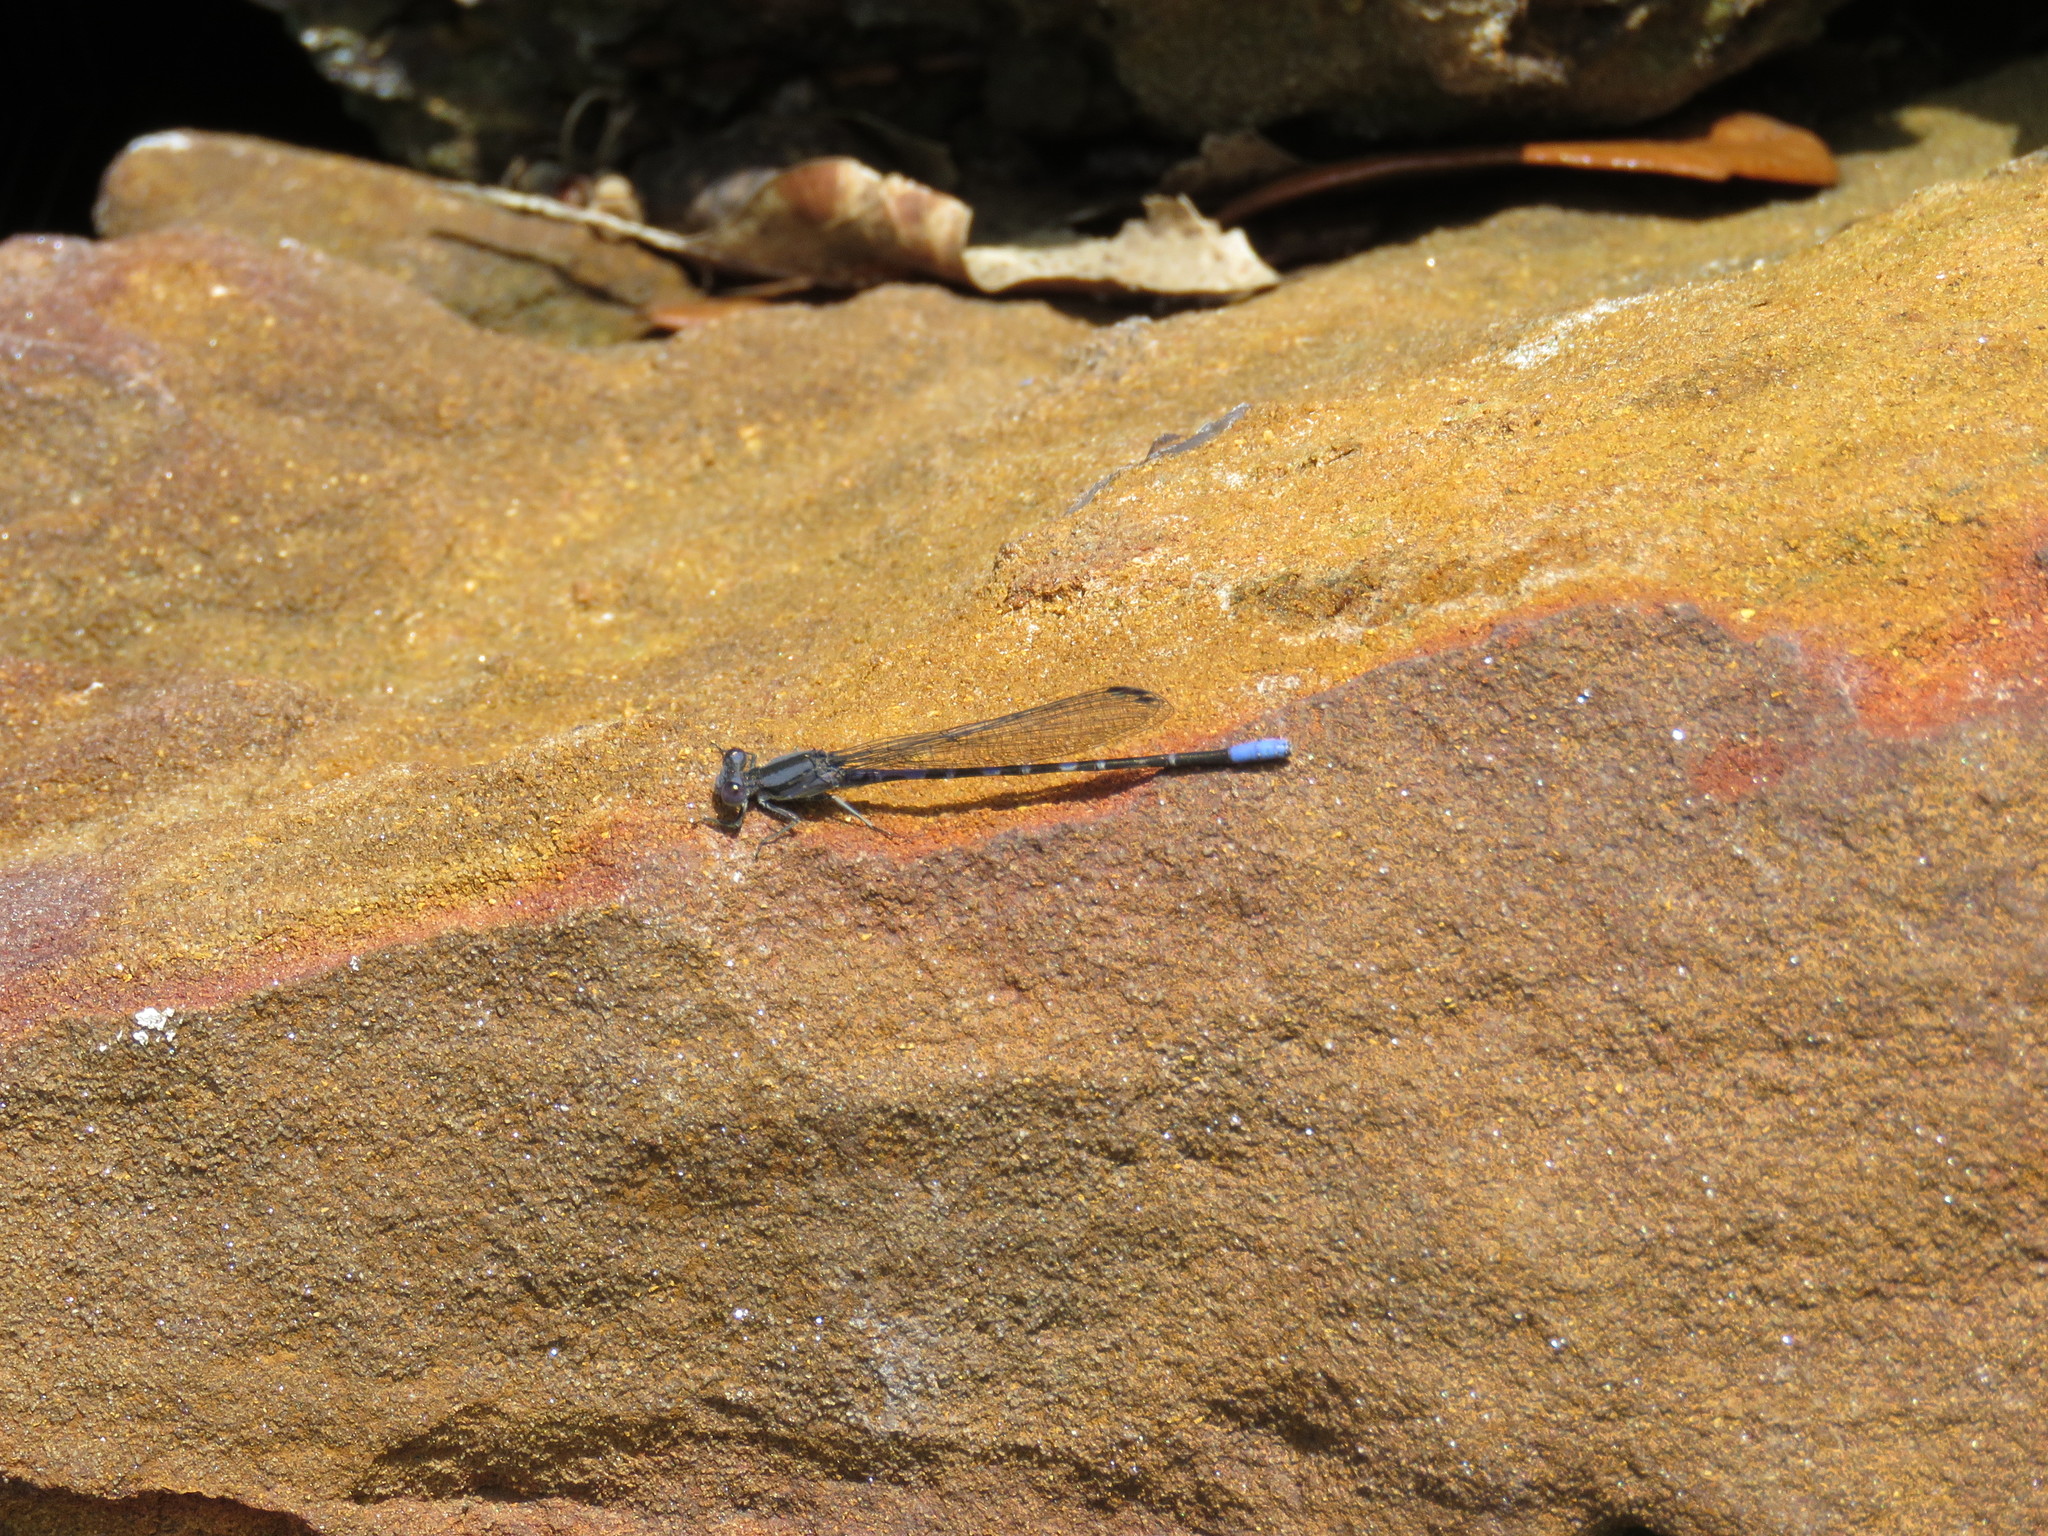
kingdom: Animalia
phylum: Arthropoda
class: Insecta
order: Odonata
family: Coenagrionidae
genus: Argia
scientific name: Argia immunda
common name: Kiowa dancer
